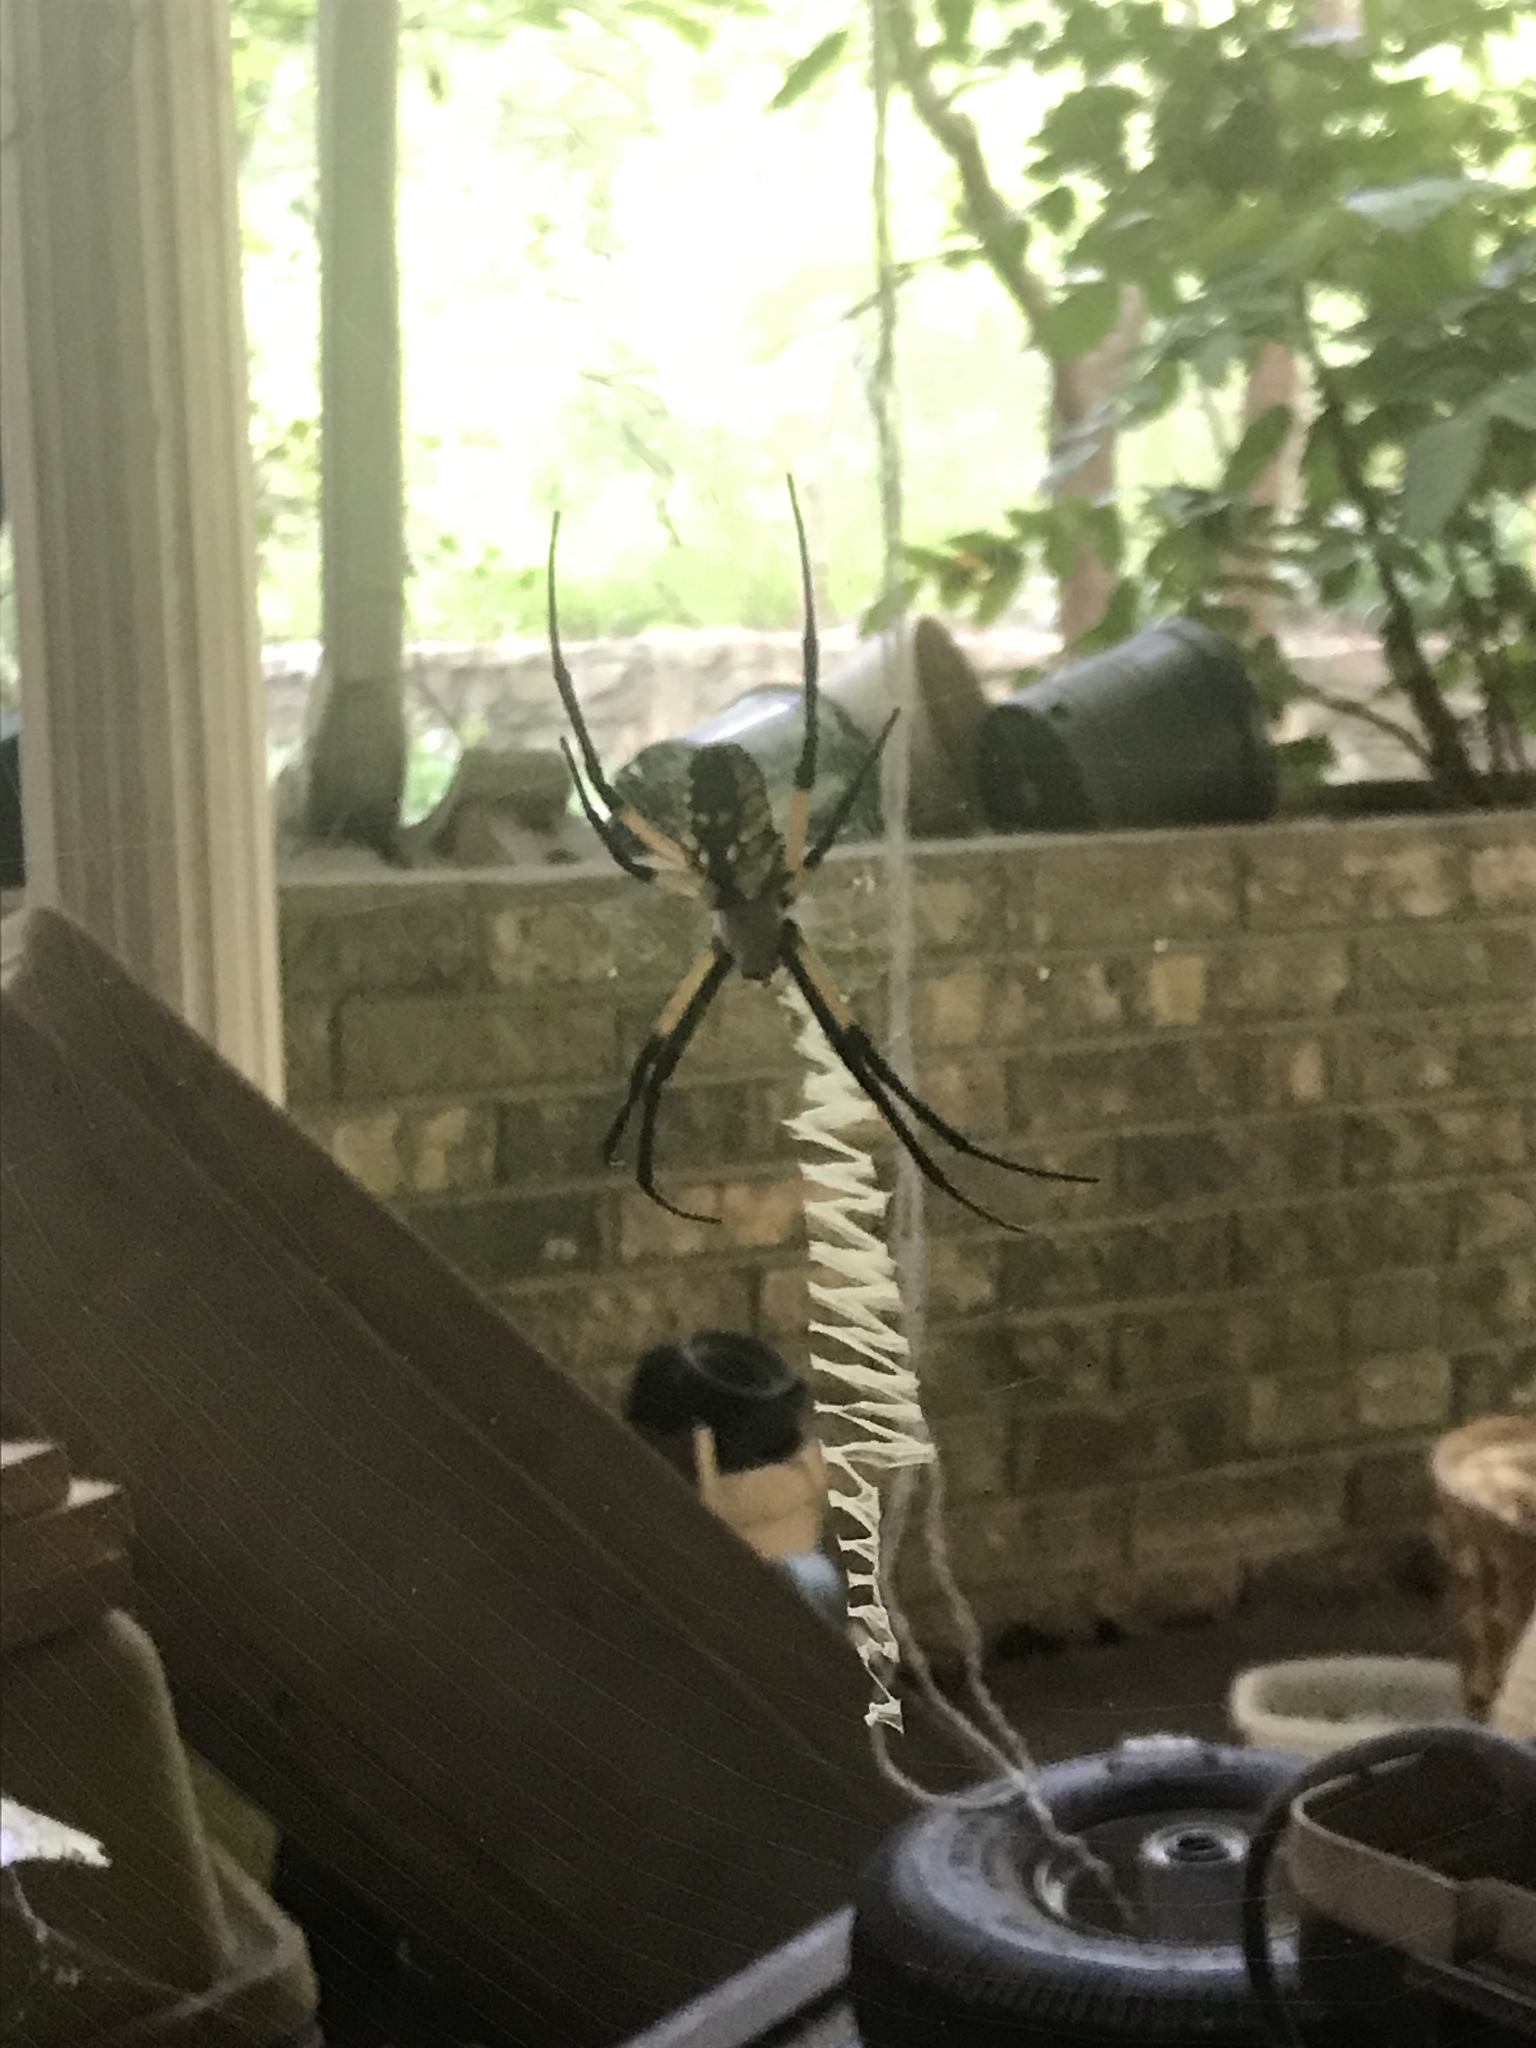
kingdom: Animalia
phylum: Arthropoda
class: Arachnida
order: Araneae
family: Araneidae
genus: Argiope
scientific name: Argiope aurantia
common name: Orb weavers
